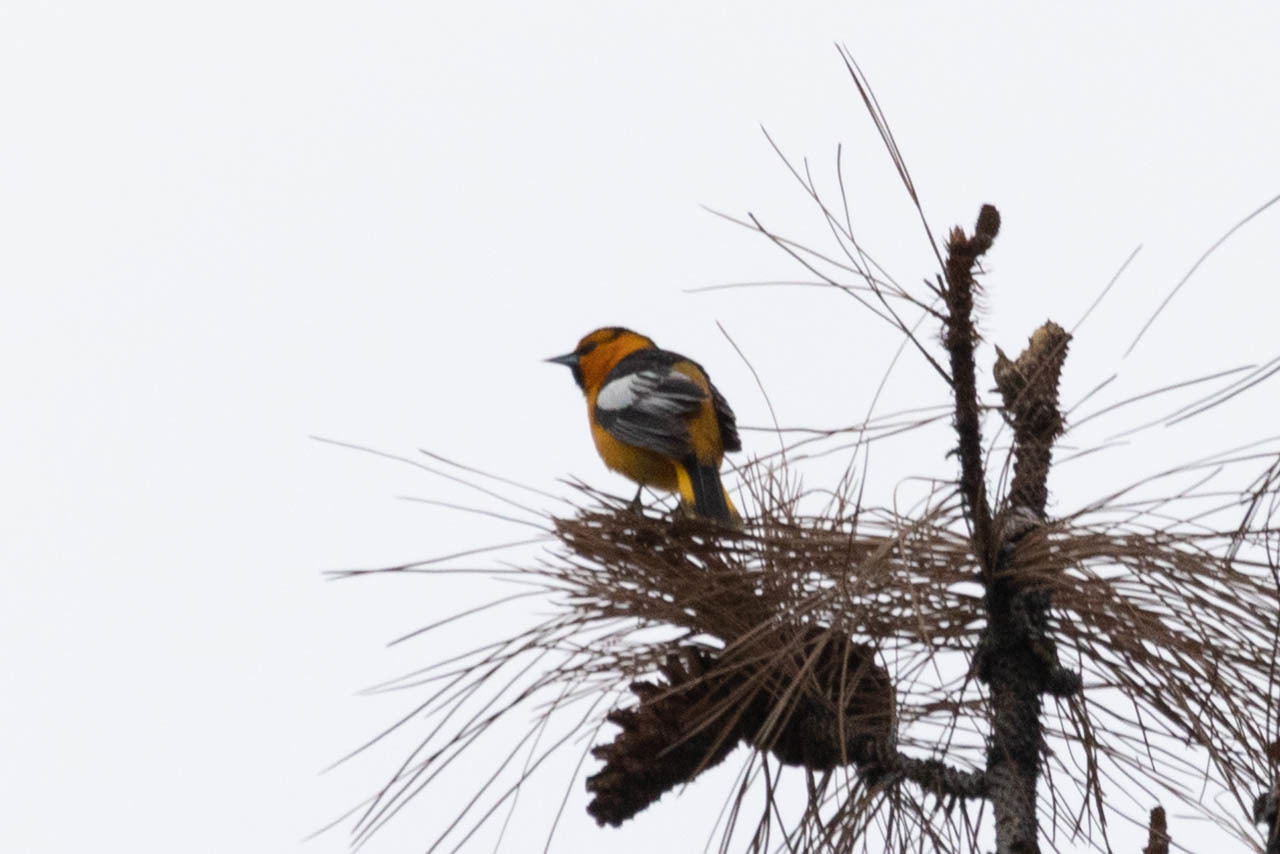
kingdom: Animalia
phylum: Chordata
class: Aves
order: Passeriformes
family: Icteridae
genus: Icterus
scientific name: Icterus bullockii
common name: Bullock's oriole
